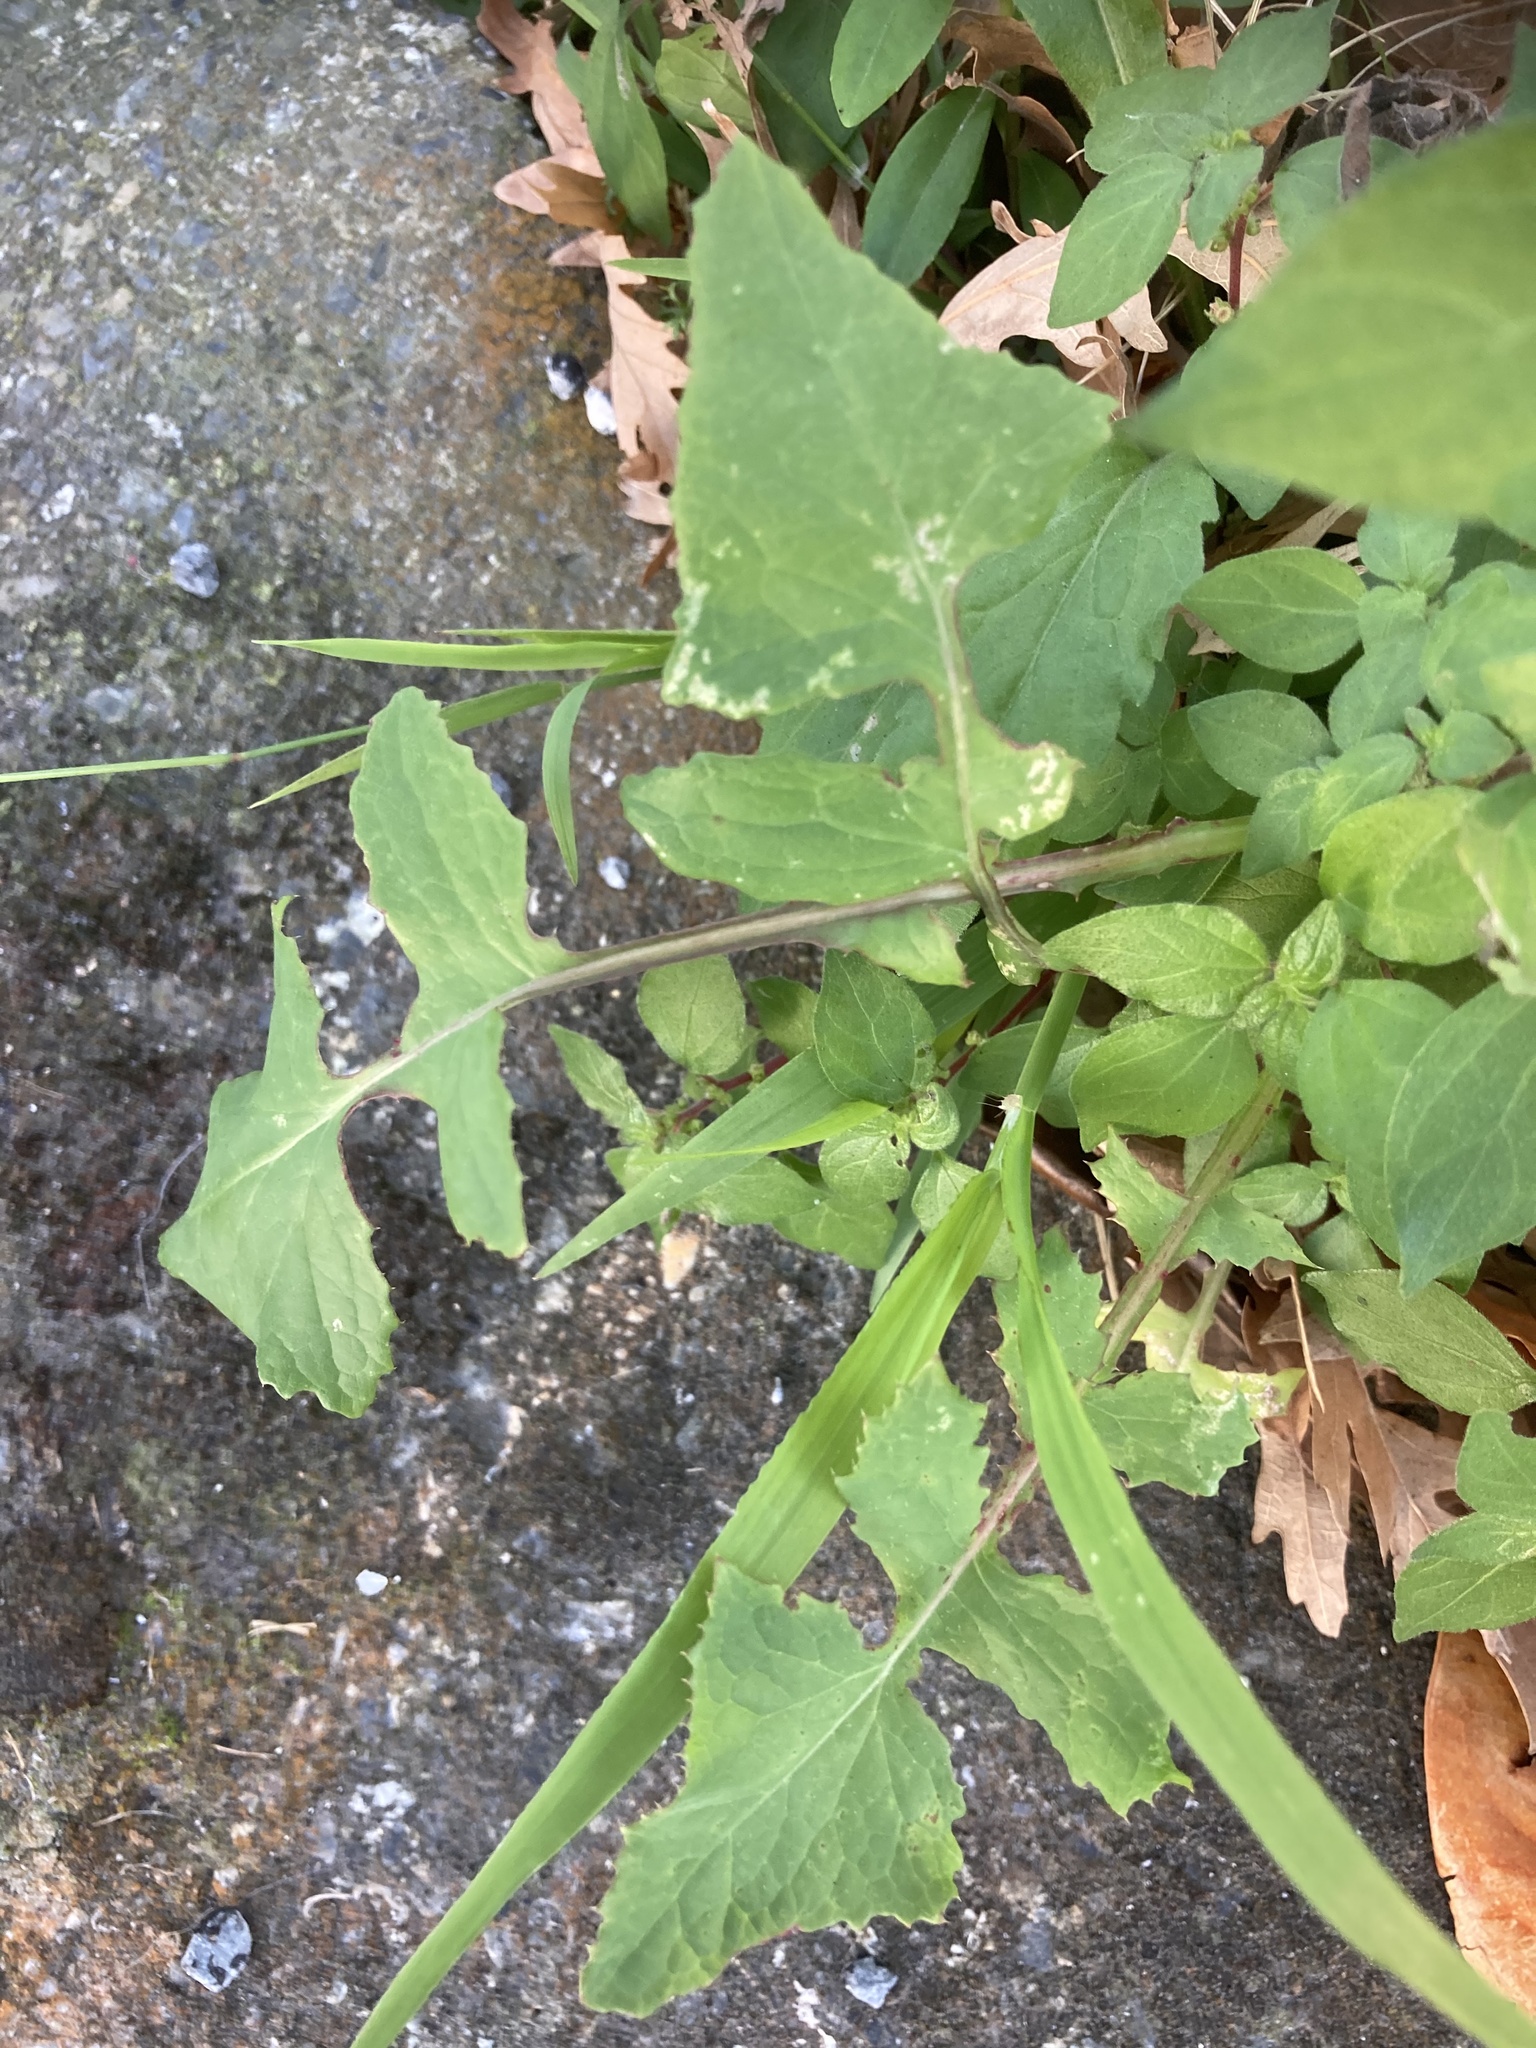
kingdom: Plantae
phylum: Tracheophyta
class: Magnoliopsida
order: Asterales
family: Asteraceae
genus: Sonchus
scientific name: Sonchus oleraceus
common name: Common sowthistle
